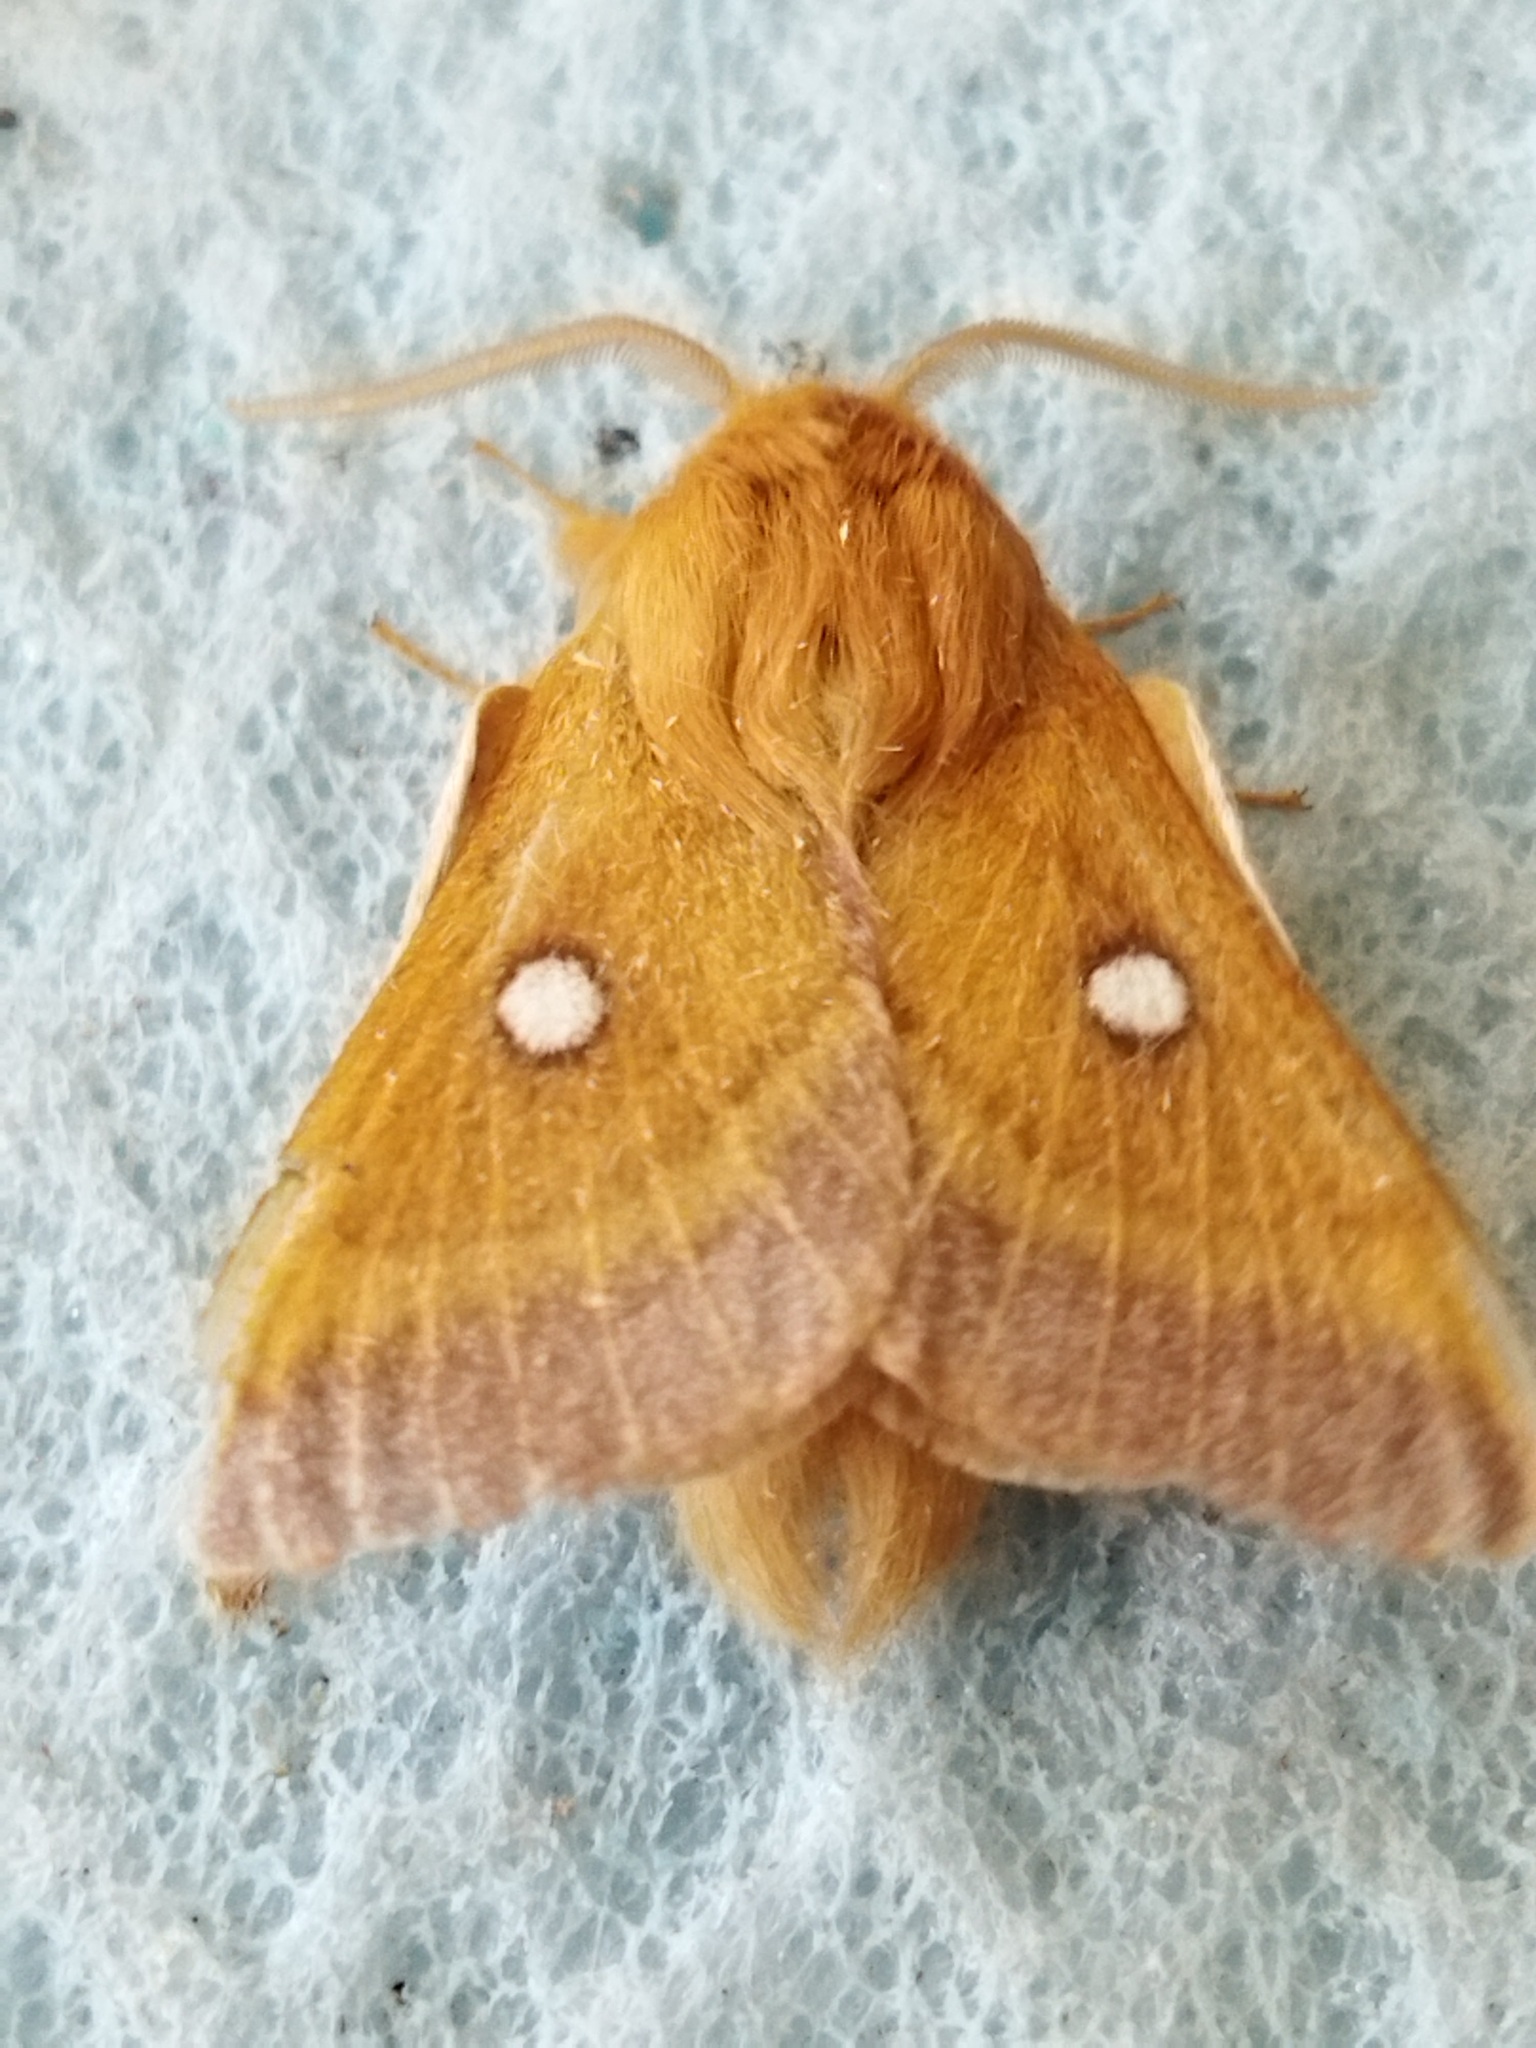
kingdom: Animalia
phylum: Arthropoda
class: Insecta
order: Lepidoptera
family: Lasiocampidae
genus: Eriogaster
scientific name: Eriogaster catax
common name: Eastern eggar
